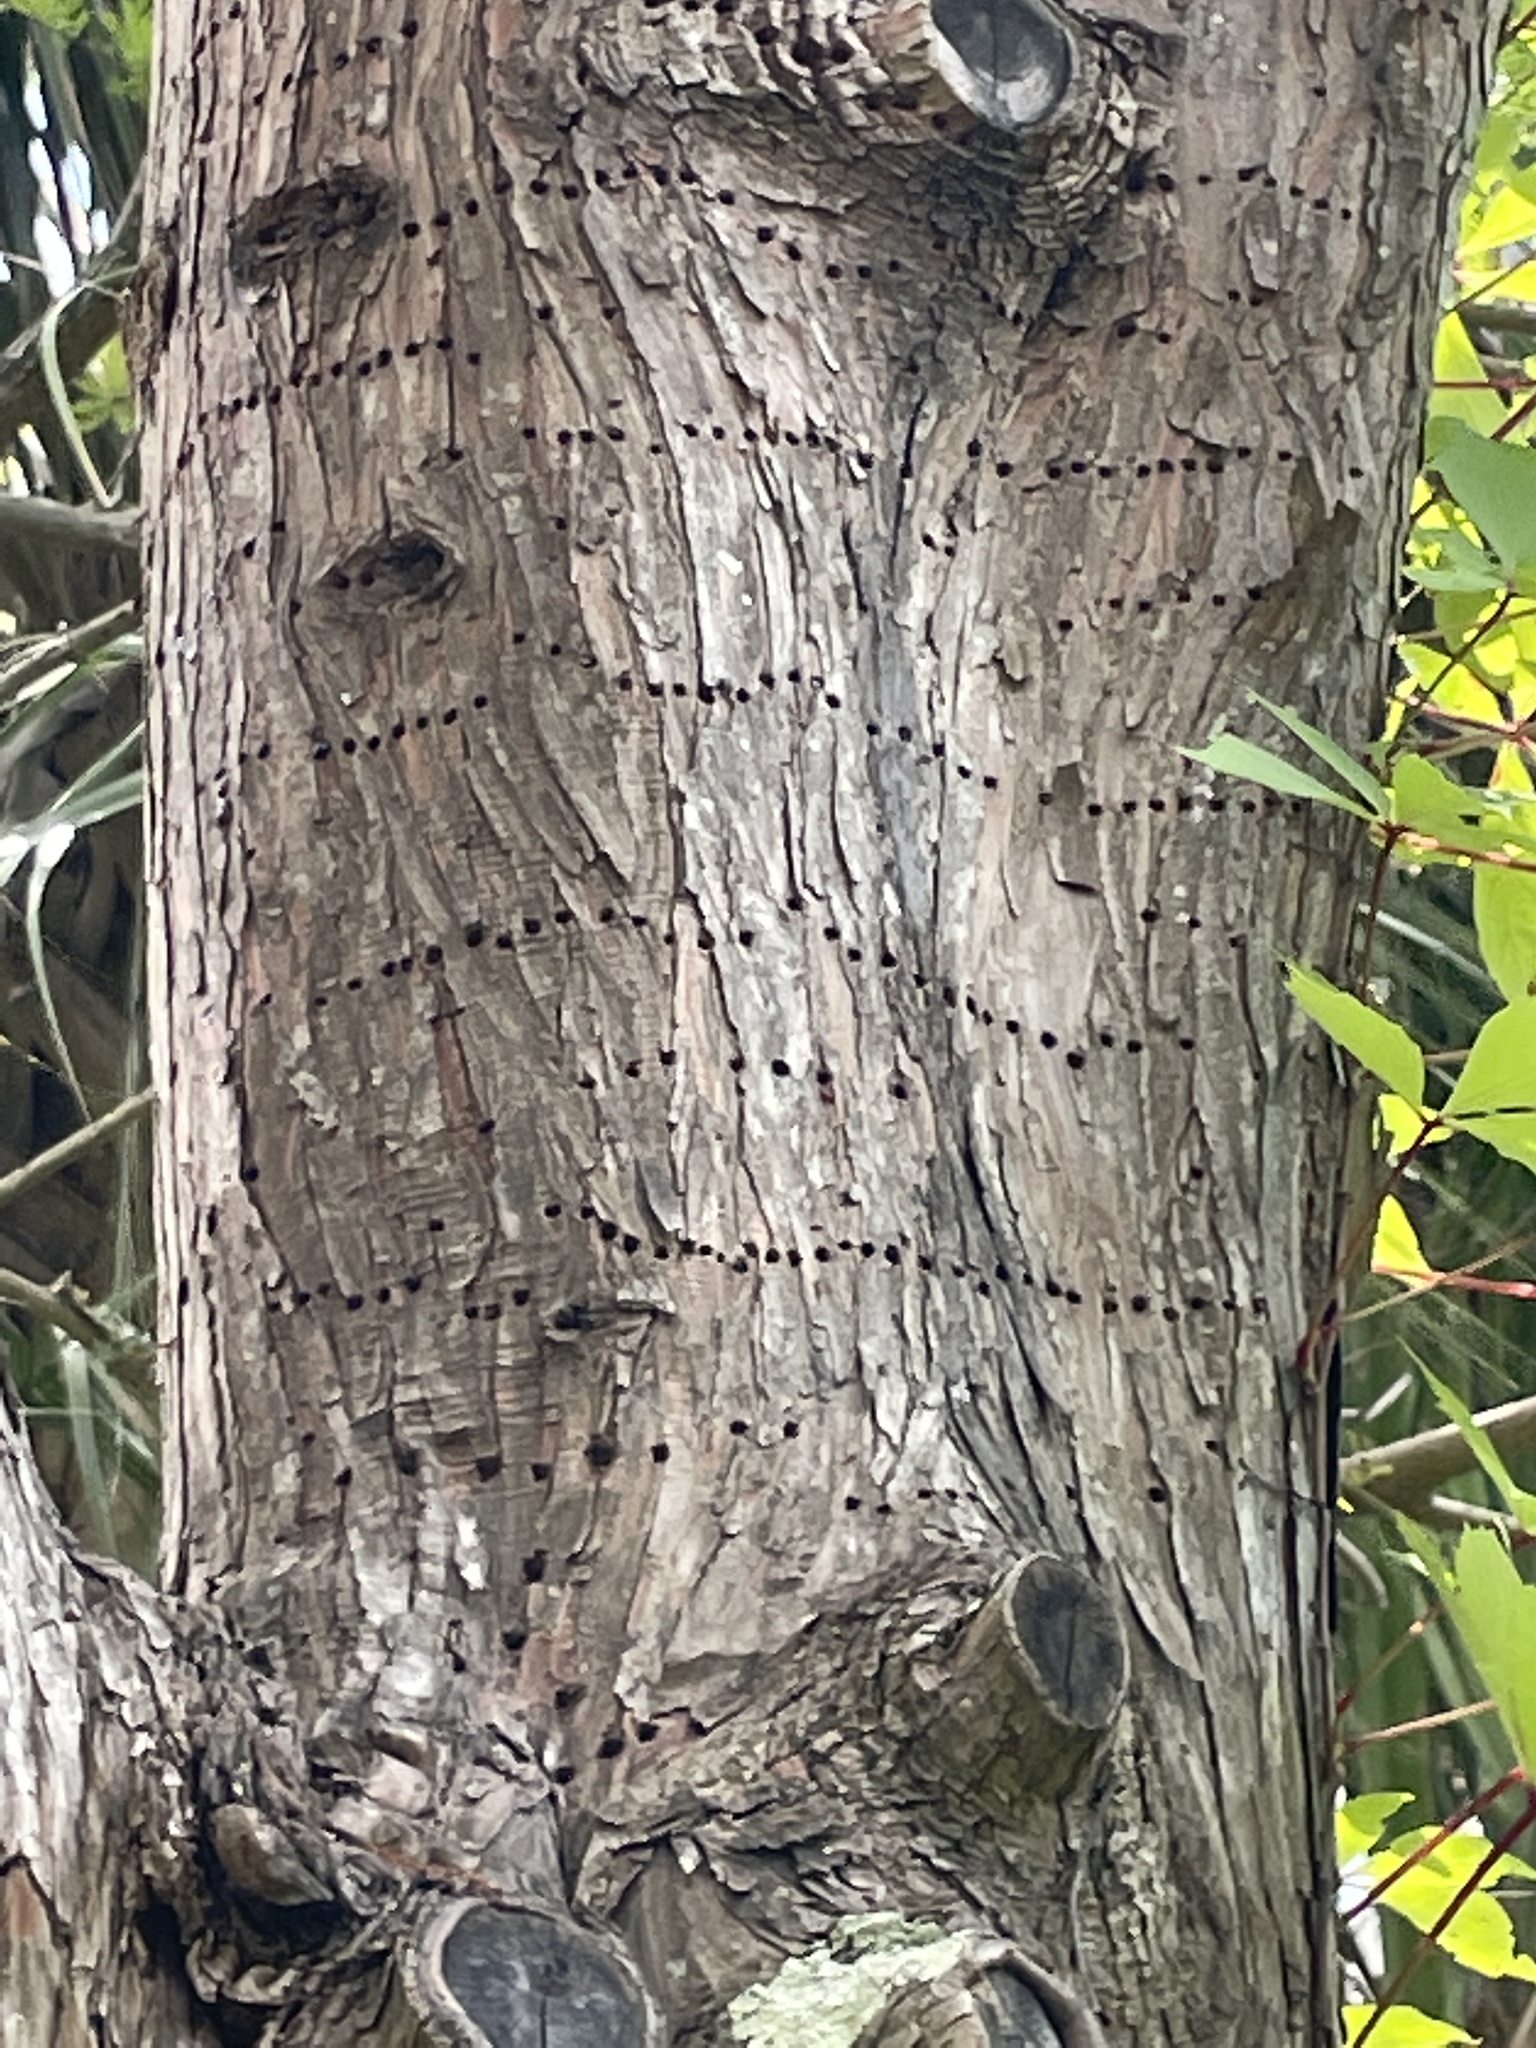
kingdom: Animalia
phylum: Chordata
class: Aves
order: Piciformes
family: Picidae
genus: Sphyrapicus
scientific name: Sphyrapicus varius
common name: Yellow-bellied sapsucker
